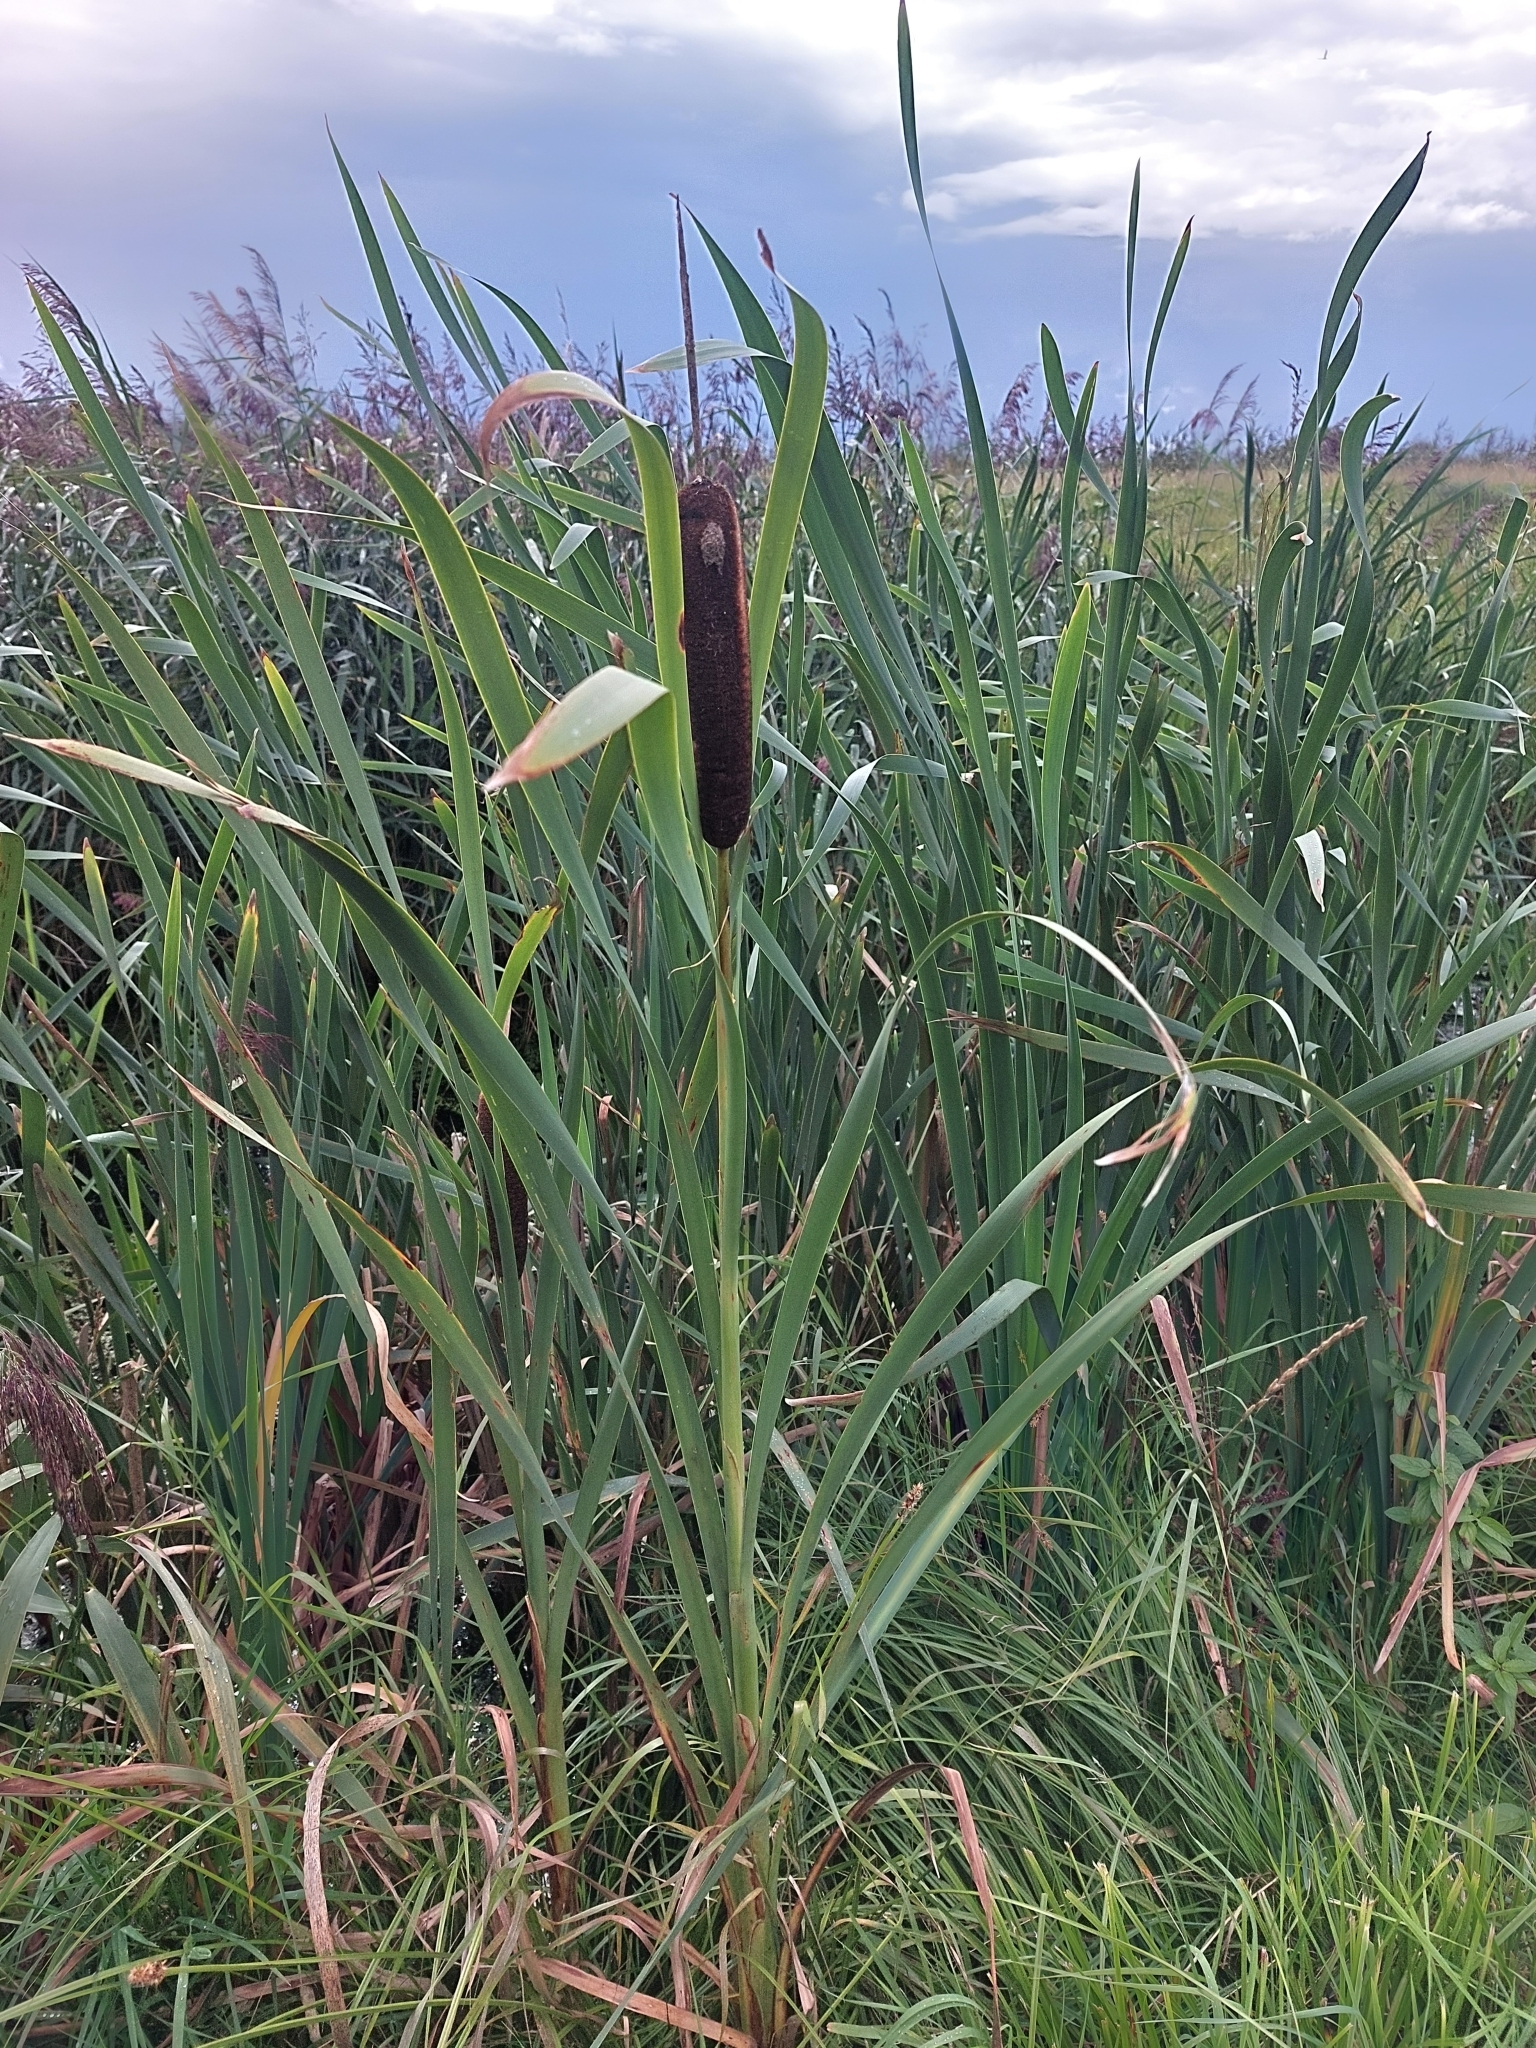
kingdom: Plantae
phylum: Tracheophyta
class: Liliopsida
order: Poales
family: Typhaceae
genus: Typha
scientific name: Typha latifolia
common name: Broadleaf cattail
